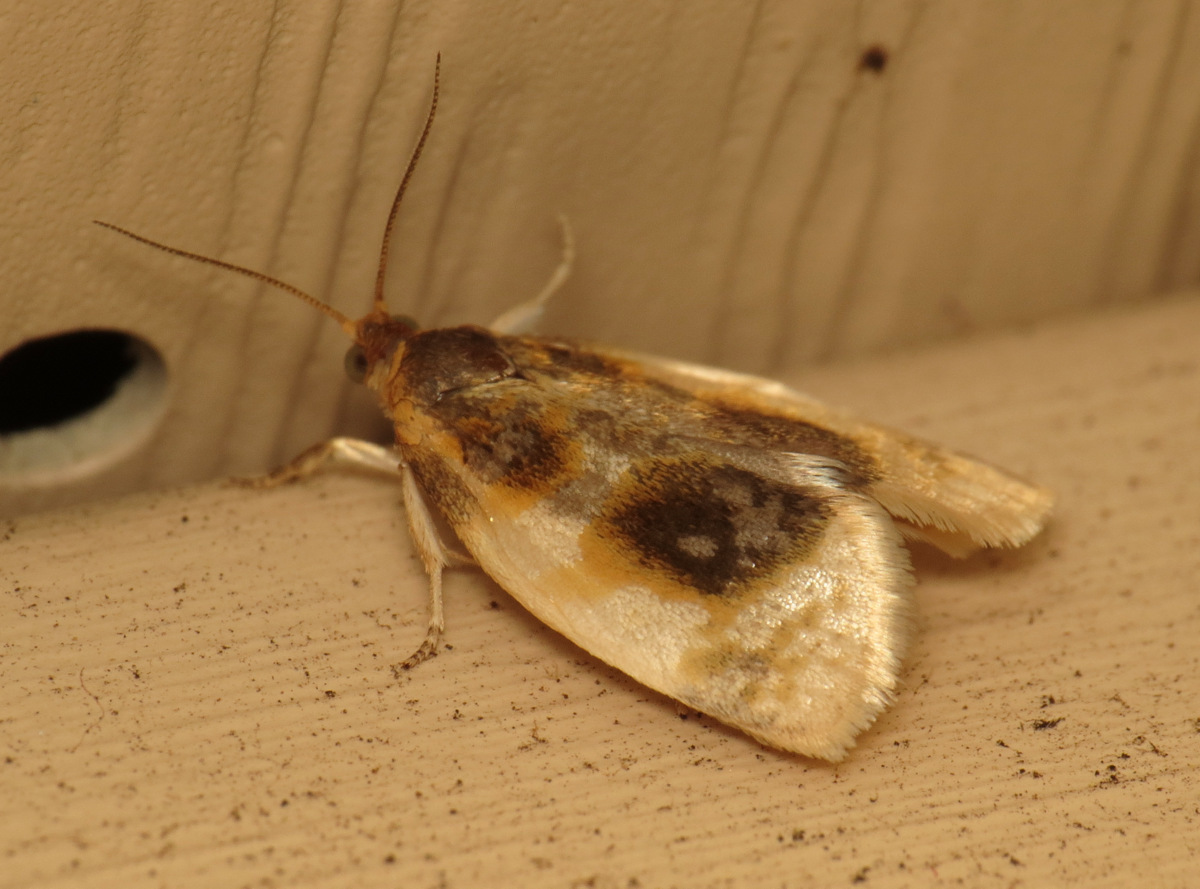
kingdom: Animalia
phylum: Arthropoda
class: Insecta
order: Lepidoptera
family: Tortricidae
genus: Clepsis
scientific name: Clepsis melaleucanus
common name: American apple tortrix
